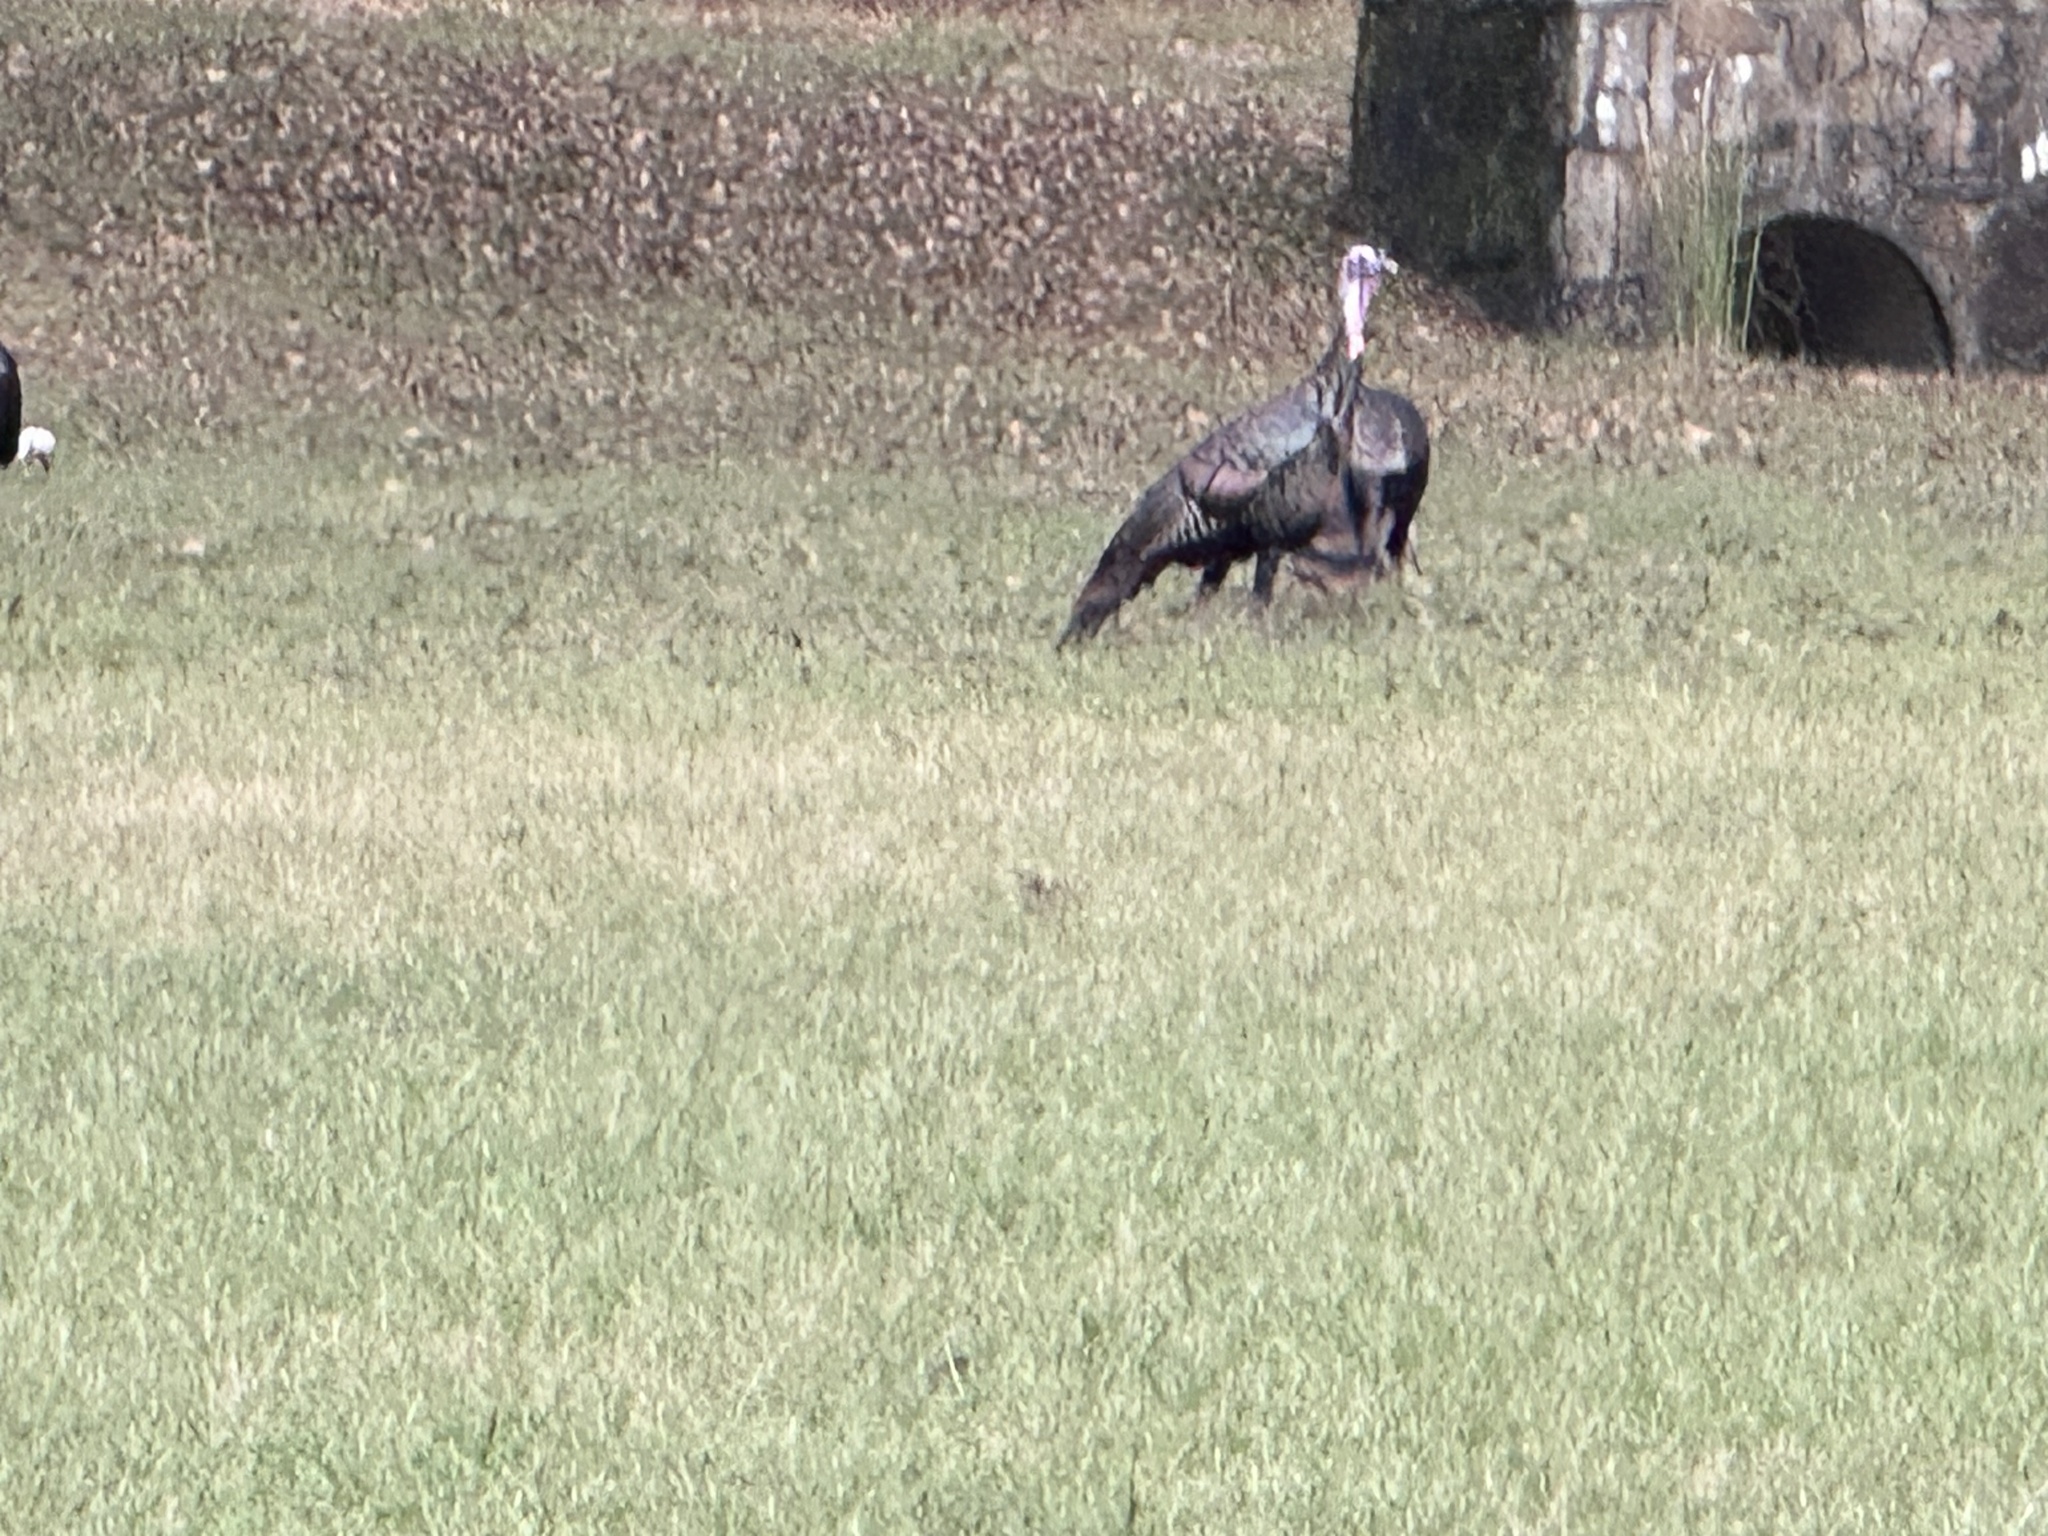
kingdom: Animalia
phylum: Chordata
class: Aves
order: Galliformes
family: Phasianidae
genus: Meleagris
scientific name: Meleagris gallopavo
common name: Wild turkey
